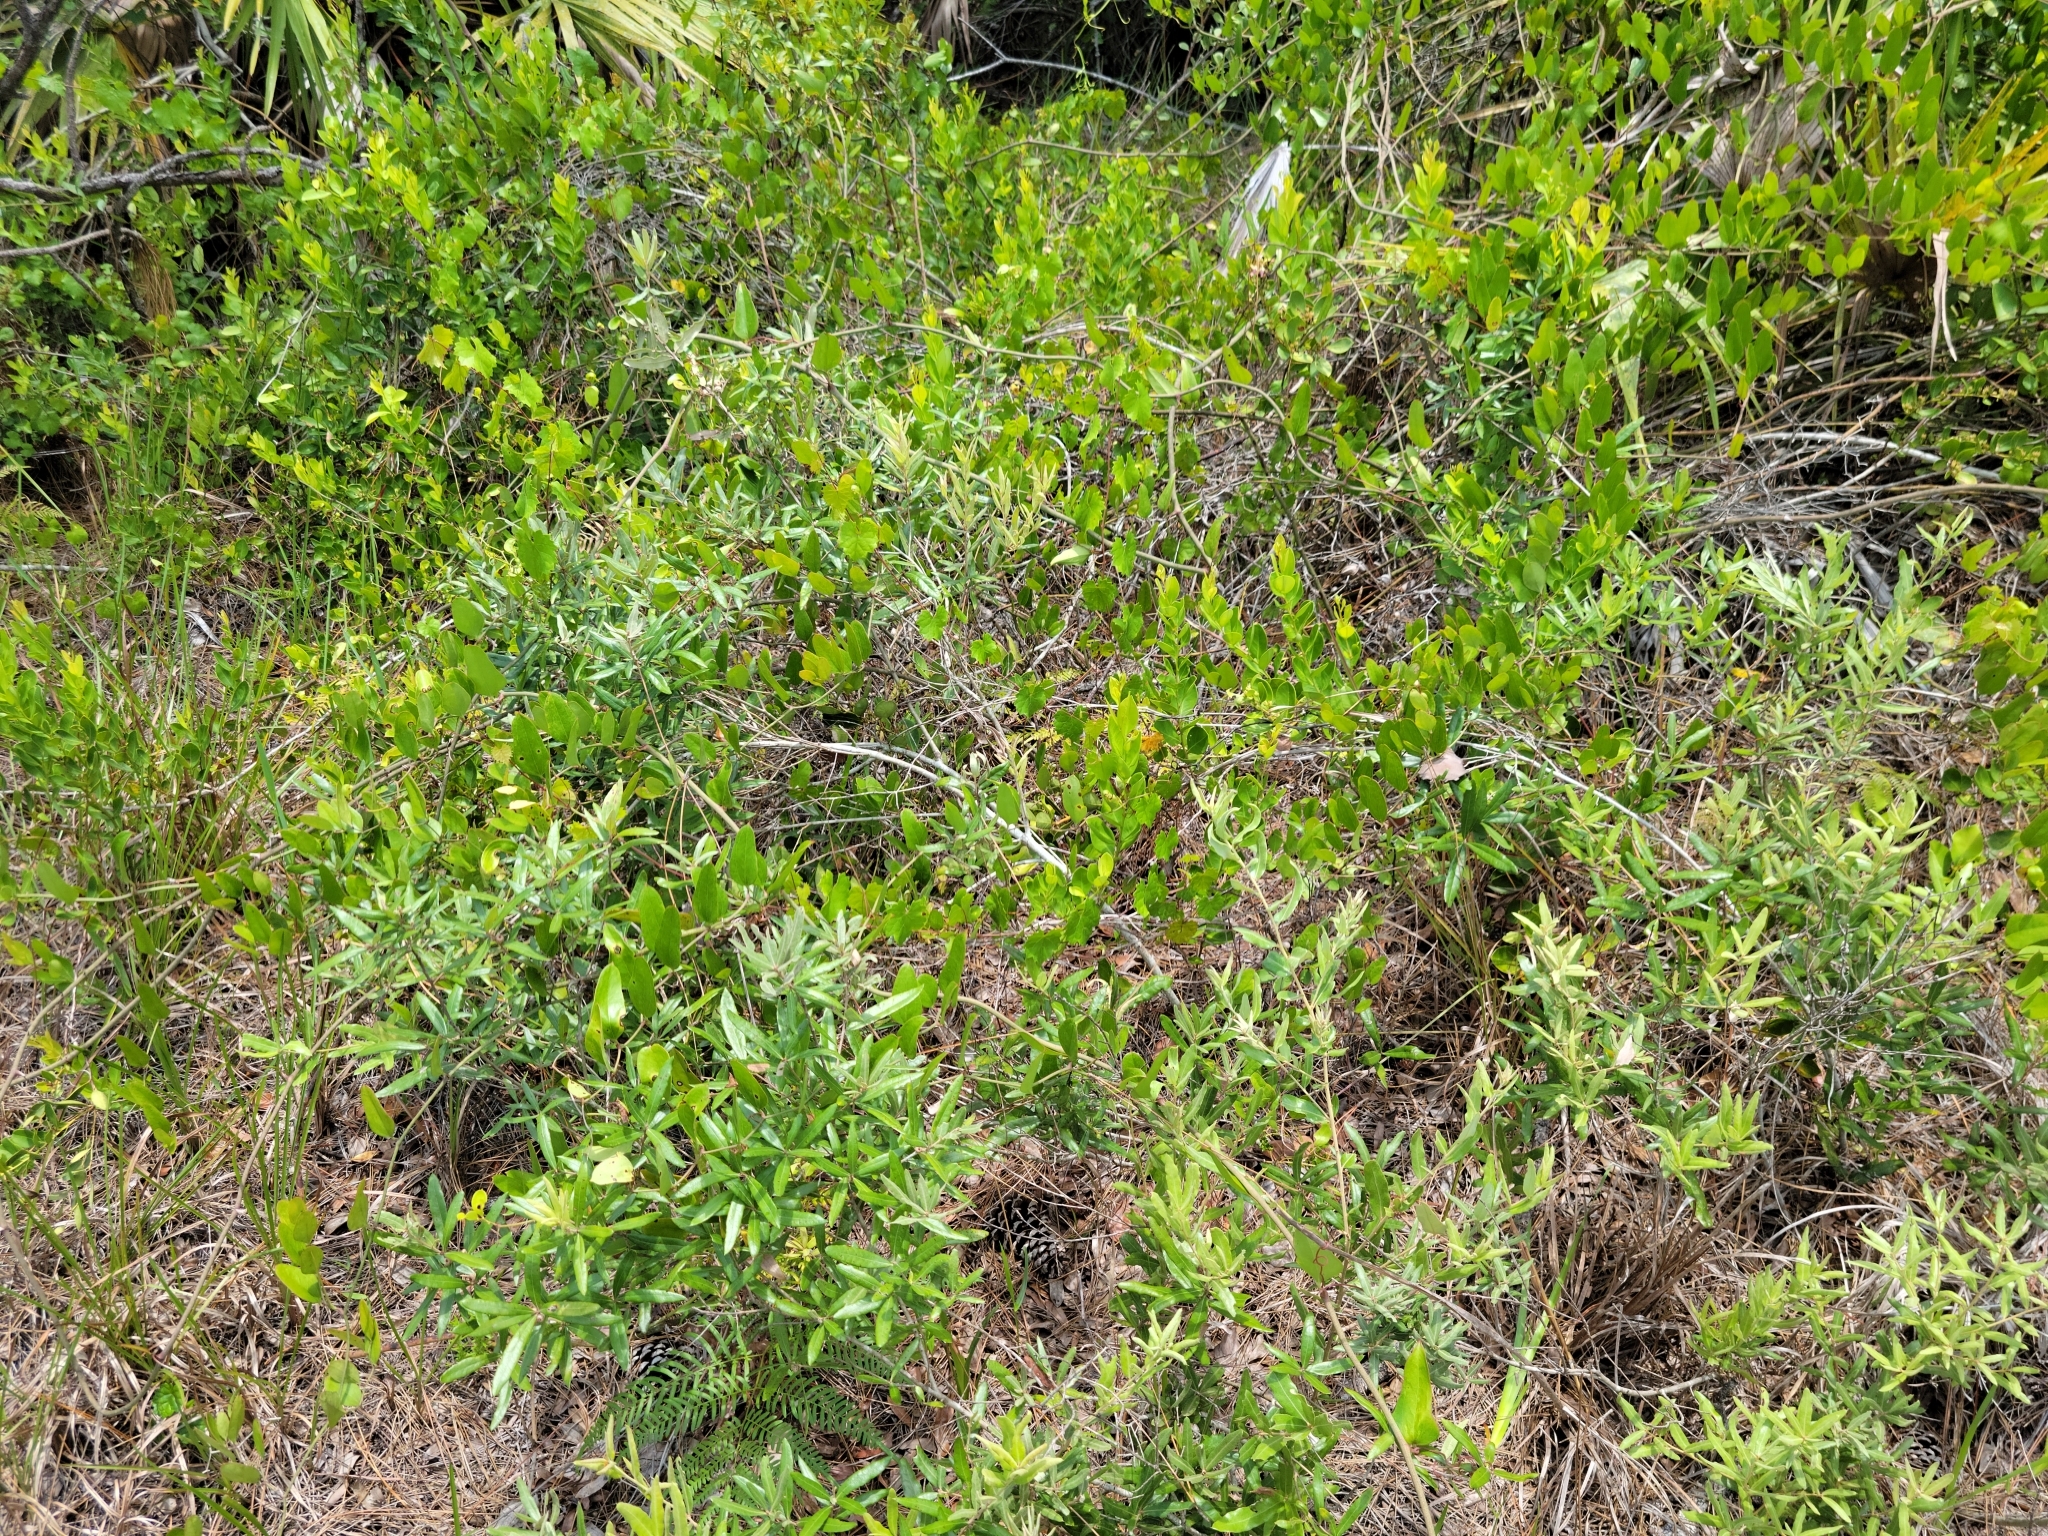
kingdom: Plantae
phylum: Tracheophyta
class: Magnoliopsida
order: Fagales
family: Fagaceae
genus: Quercus
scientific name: Quercus pumila
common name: Runner oak
